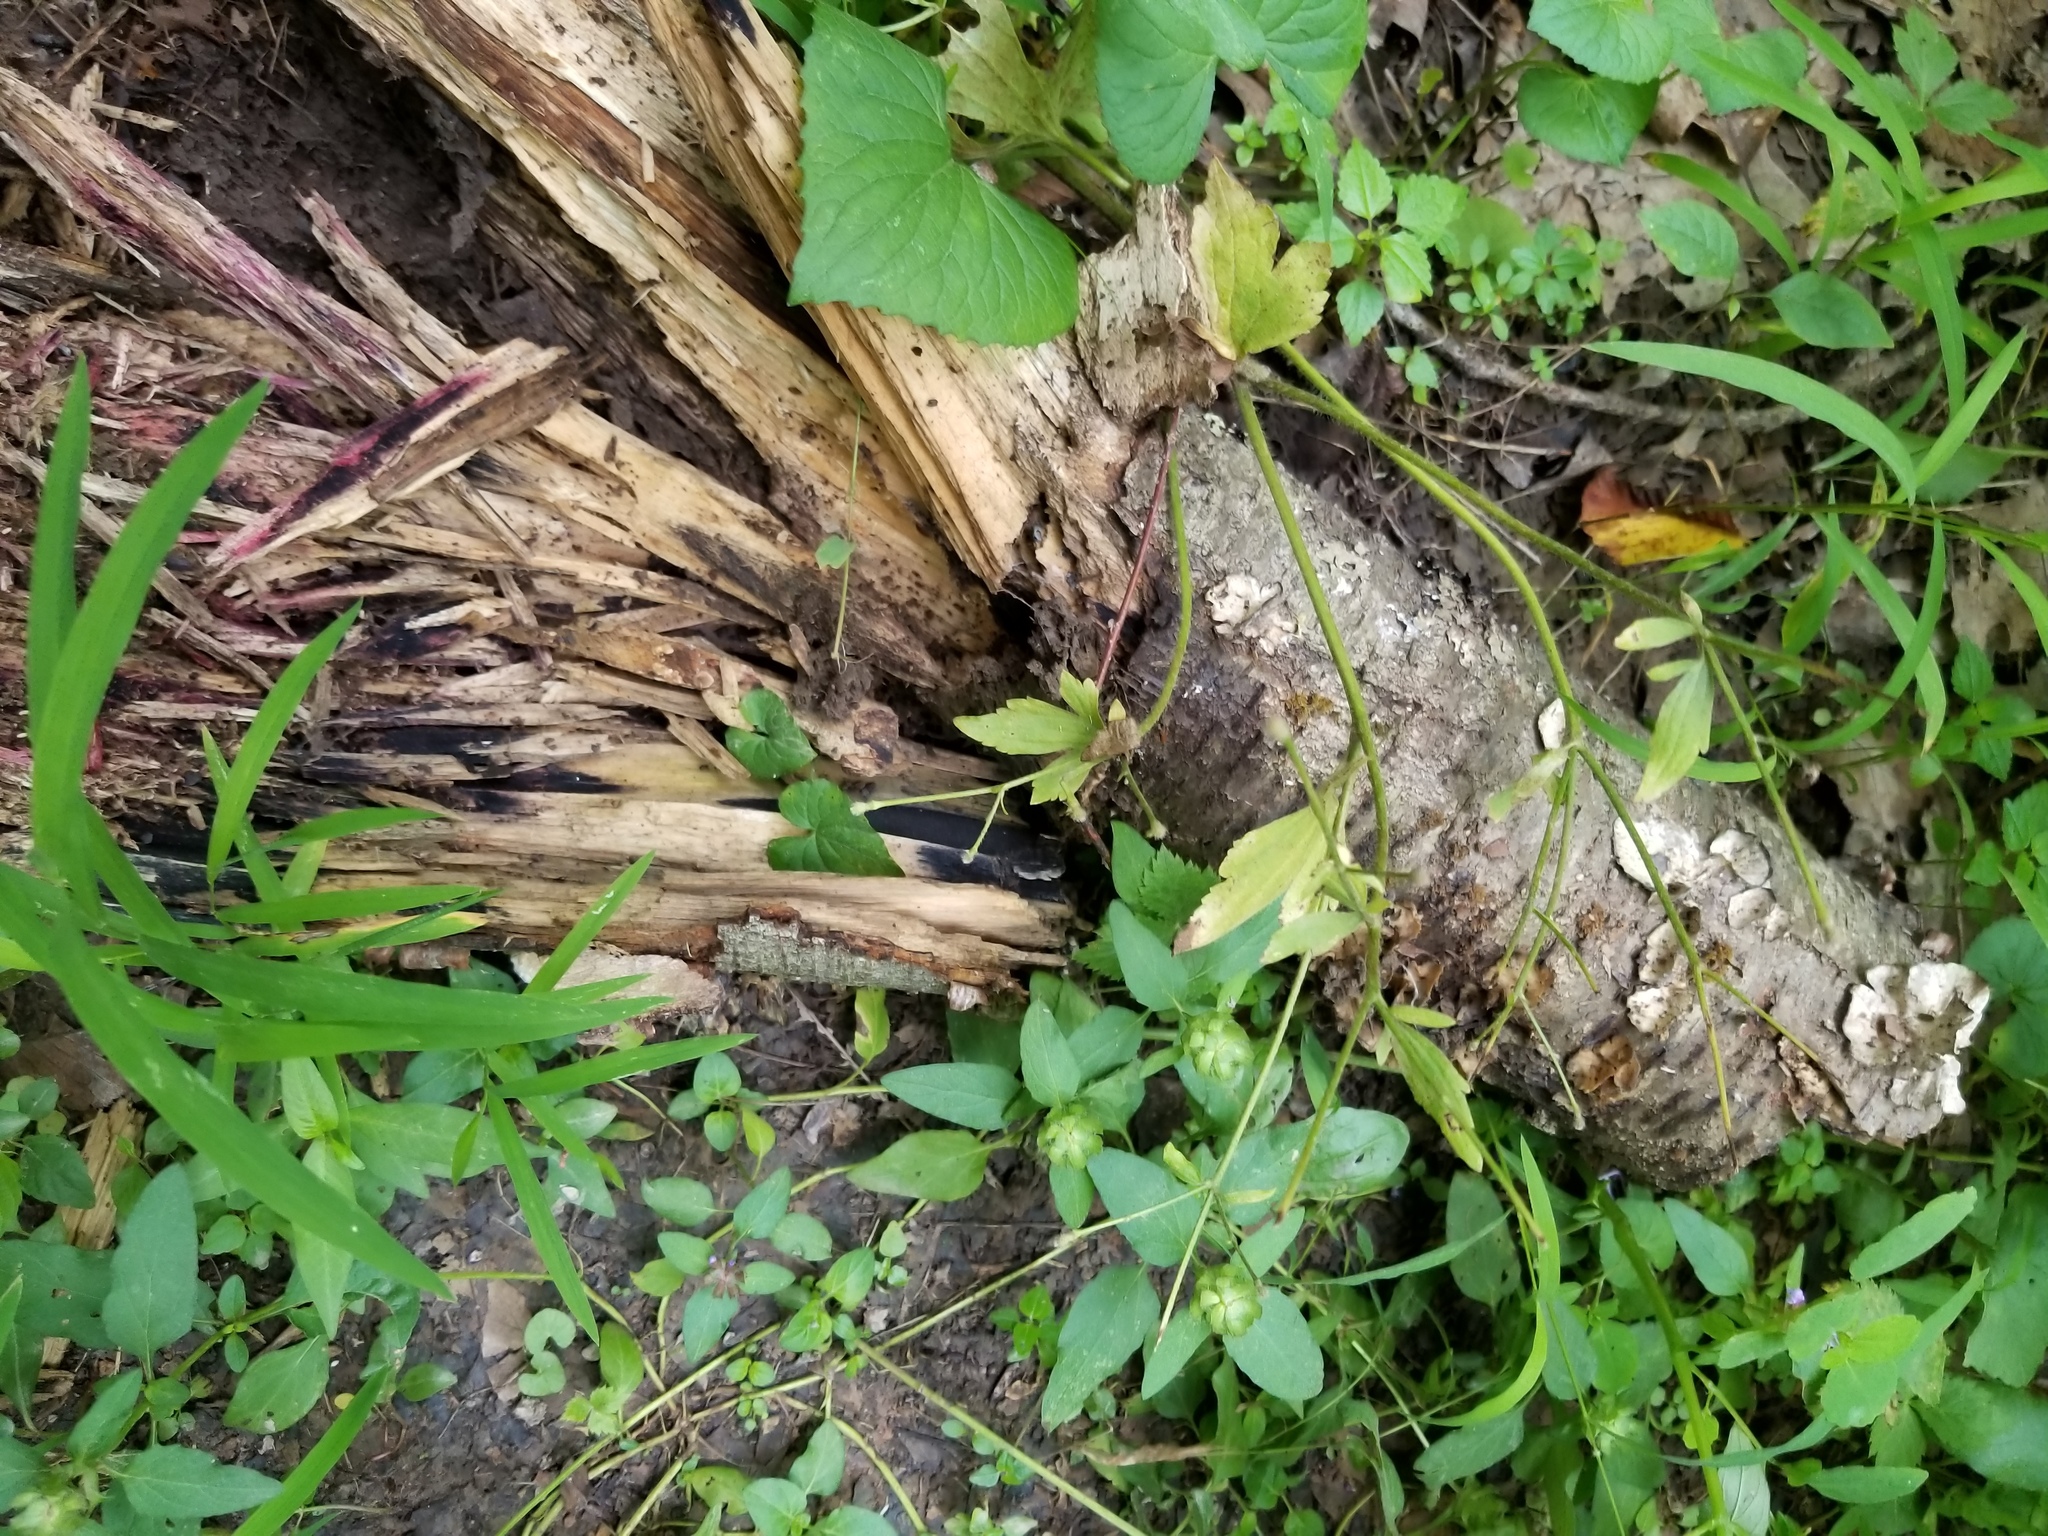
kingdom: Fungi
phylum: Ascomycota
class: Dothideomycetes
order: Pleosporales
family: Anteagloniaceae
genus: Anteaglonium
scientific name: Anteaglonium globosum
